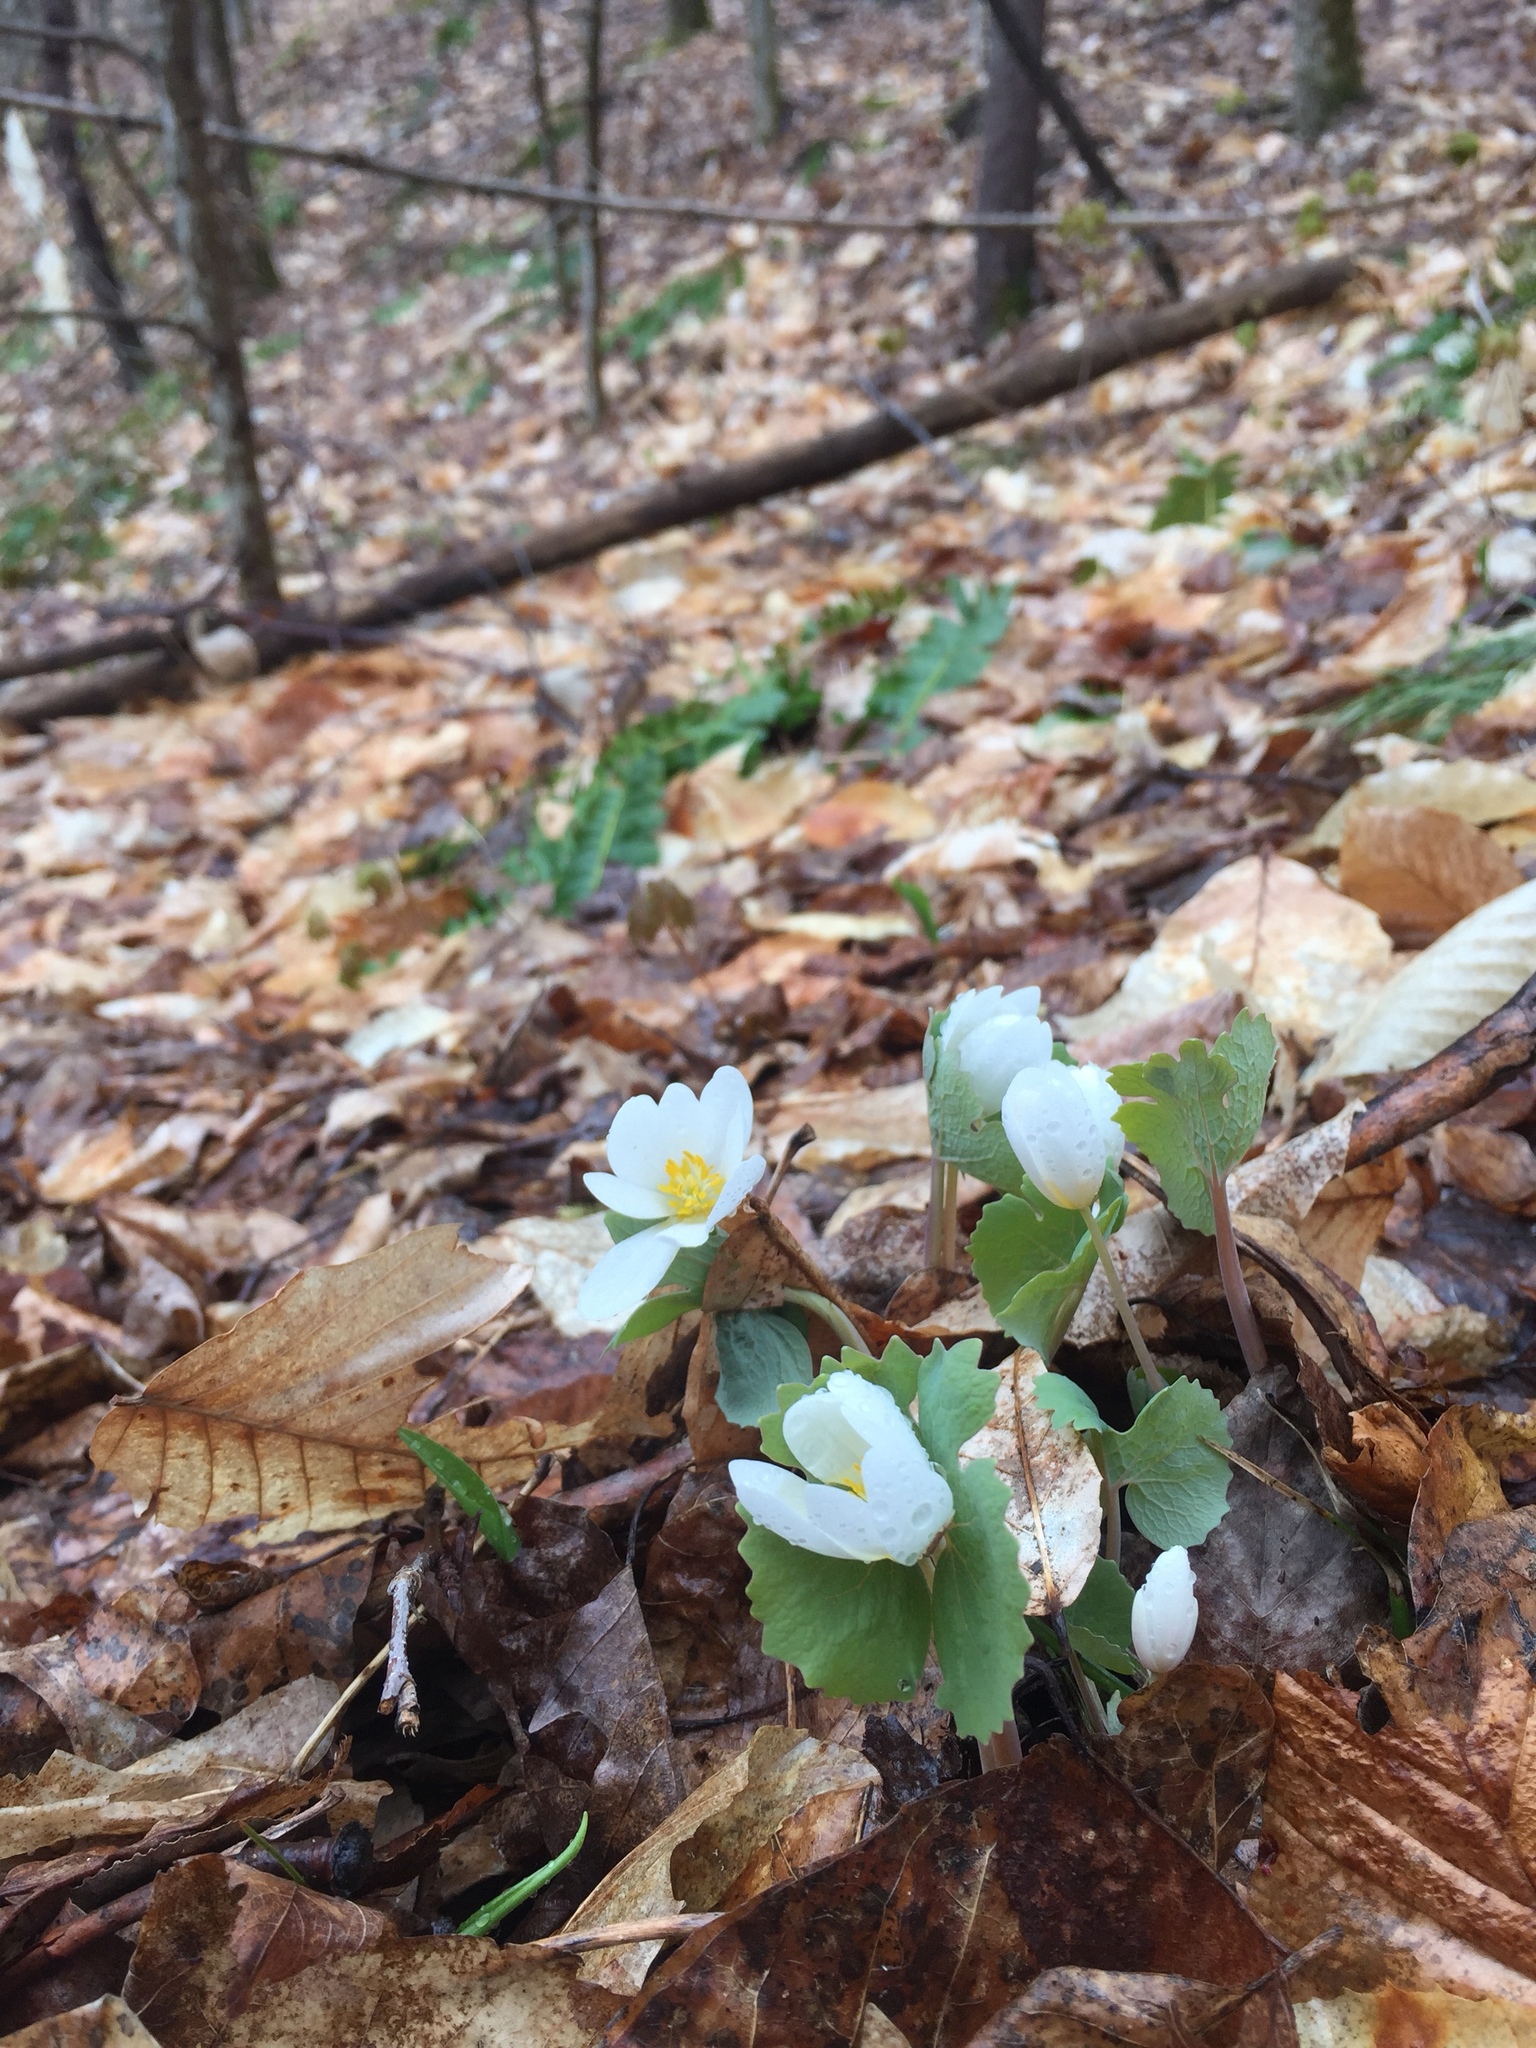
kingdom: Plantae
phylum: Tracheophyta
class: Magnoliopsida
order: Ranunculales
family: Papaveraceae
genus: Sanguinaria
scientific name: Sanguinaria canadensis
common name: Bloodroot
